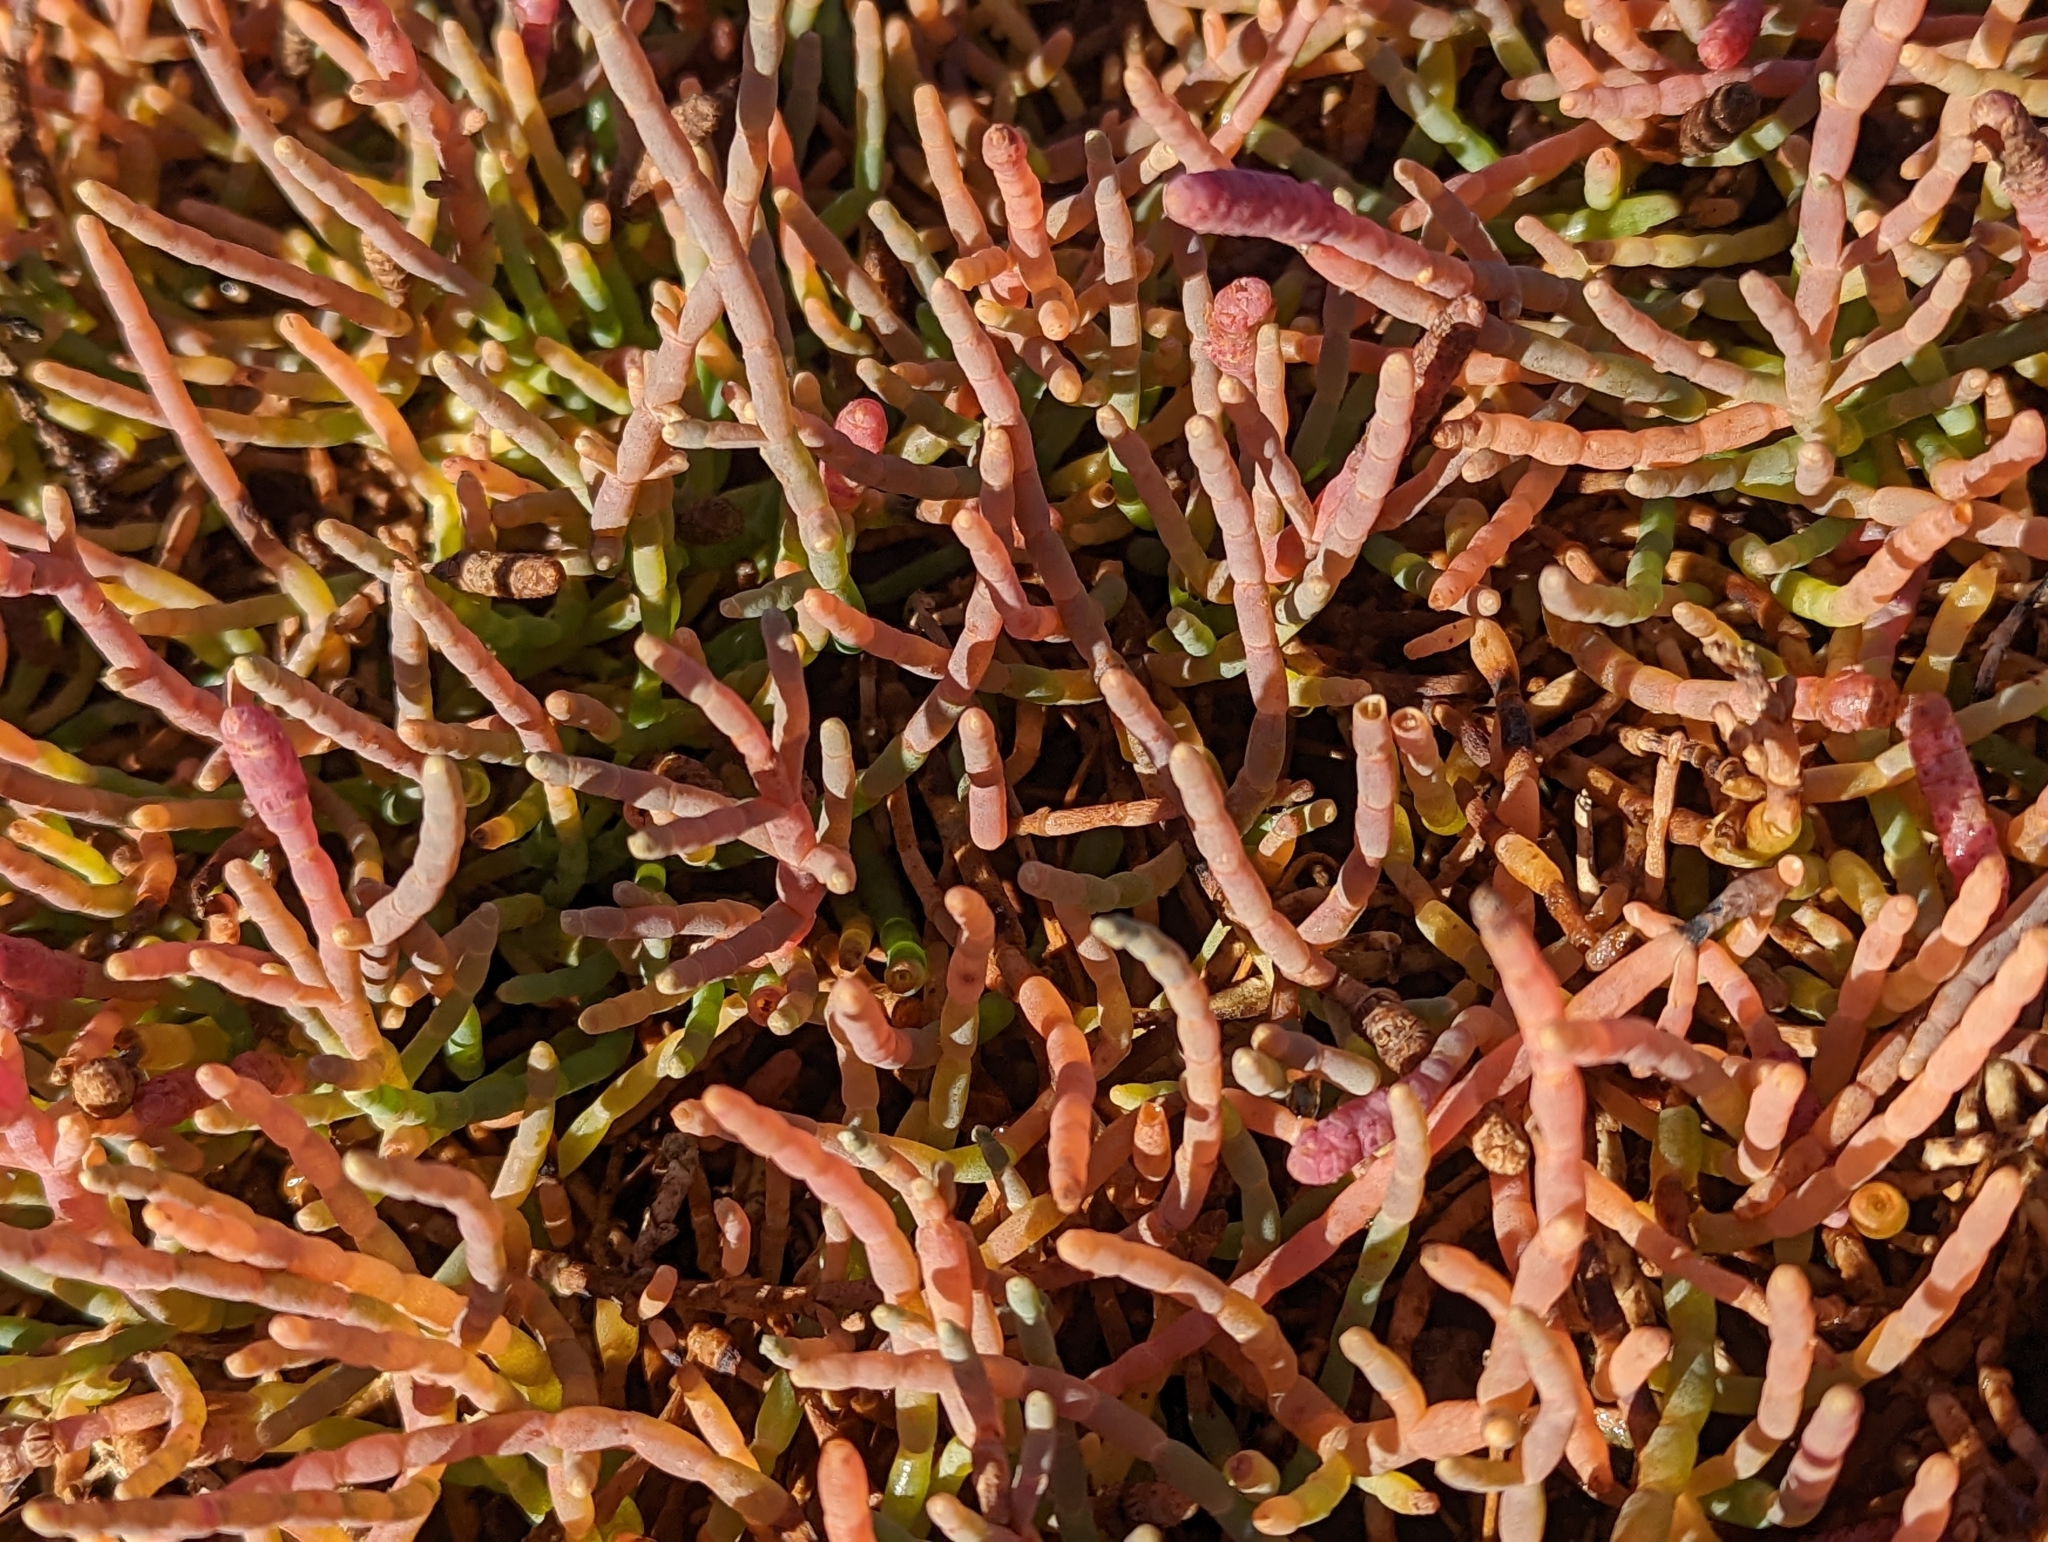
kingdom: Plantae
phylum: Tracheophyta
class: Magnoliopsida
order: Caryophyllales
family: Amaranthaceae
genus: Salicornia
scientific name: Salicornia pacifica
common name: Pacific glasswort
